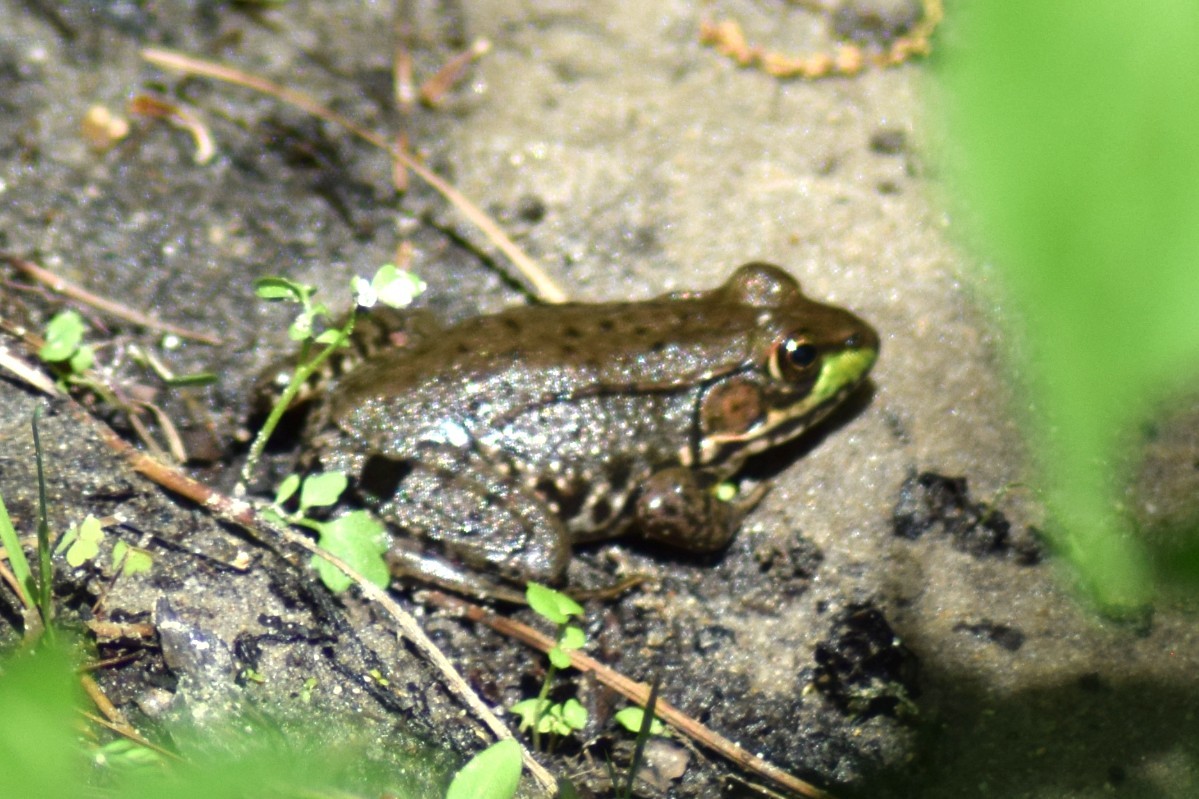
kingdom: Animalia
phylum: Chordata
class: Amphibia
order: Anura
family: Ranidae
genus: Lithobates
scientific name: Lithobates clamitans
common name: Green frog
